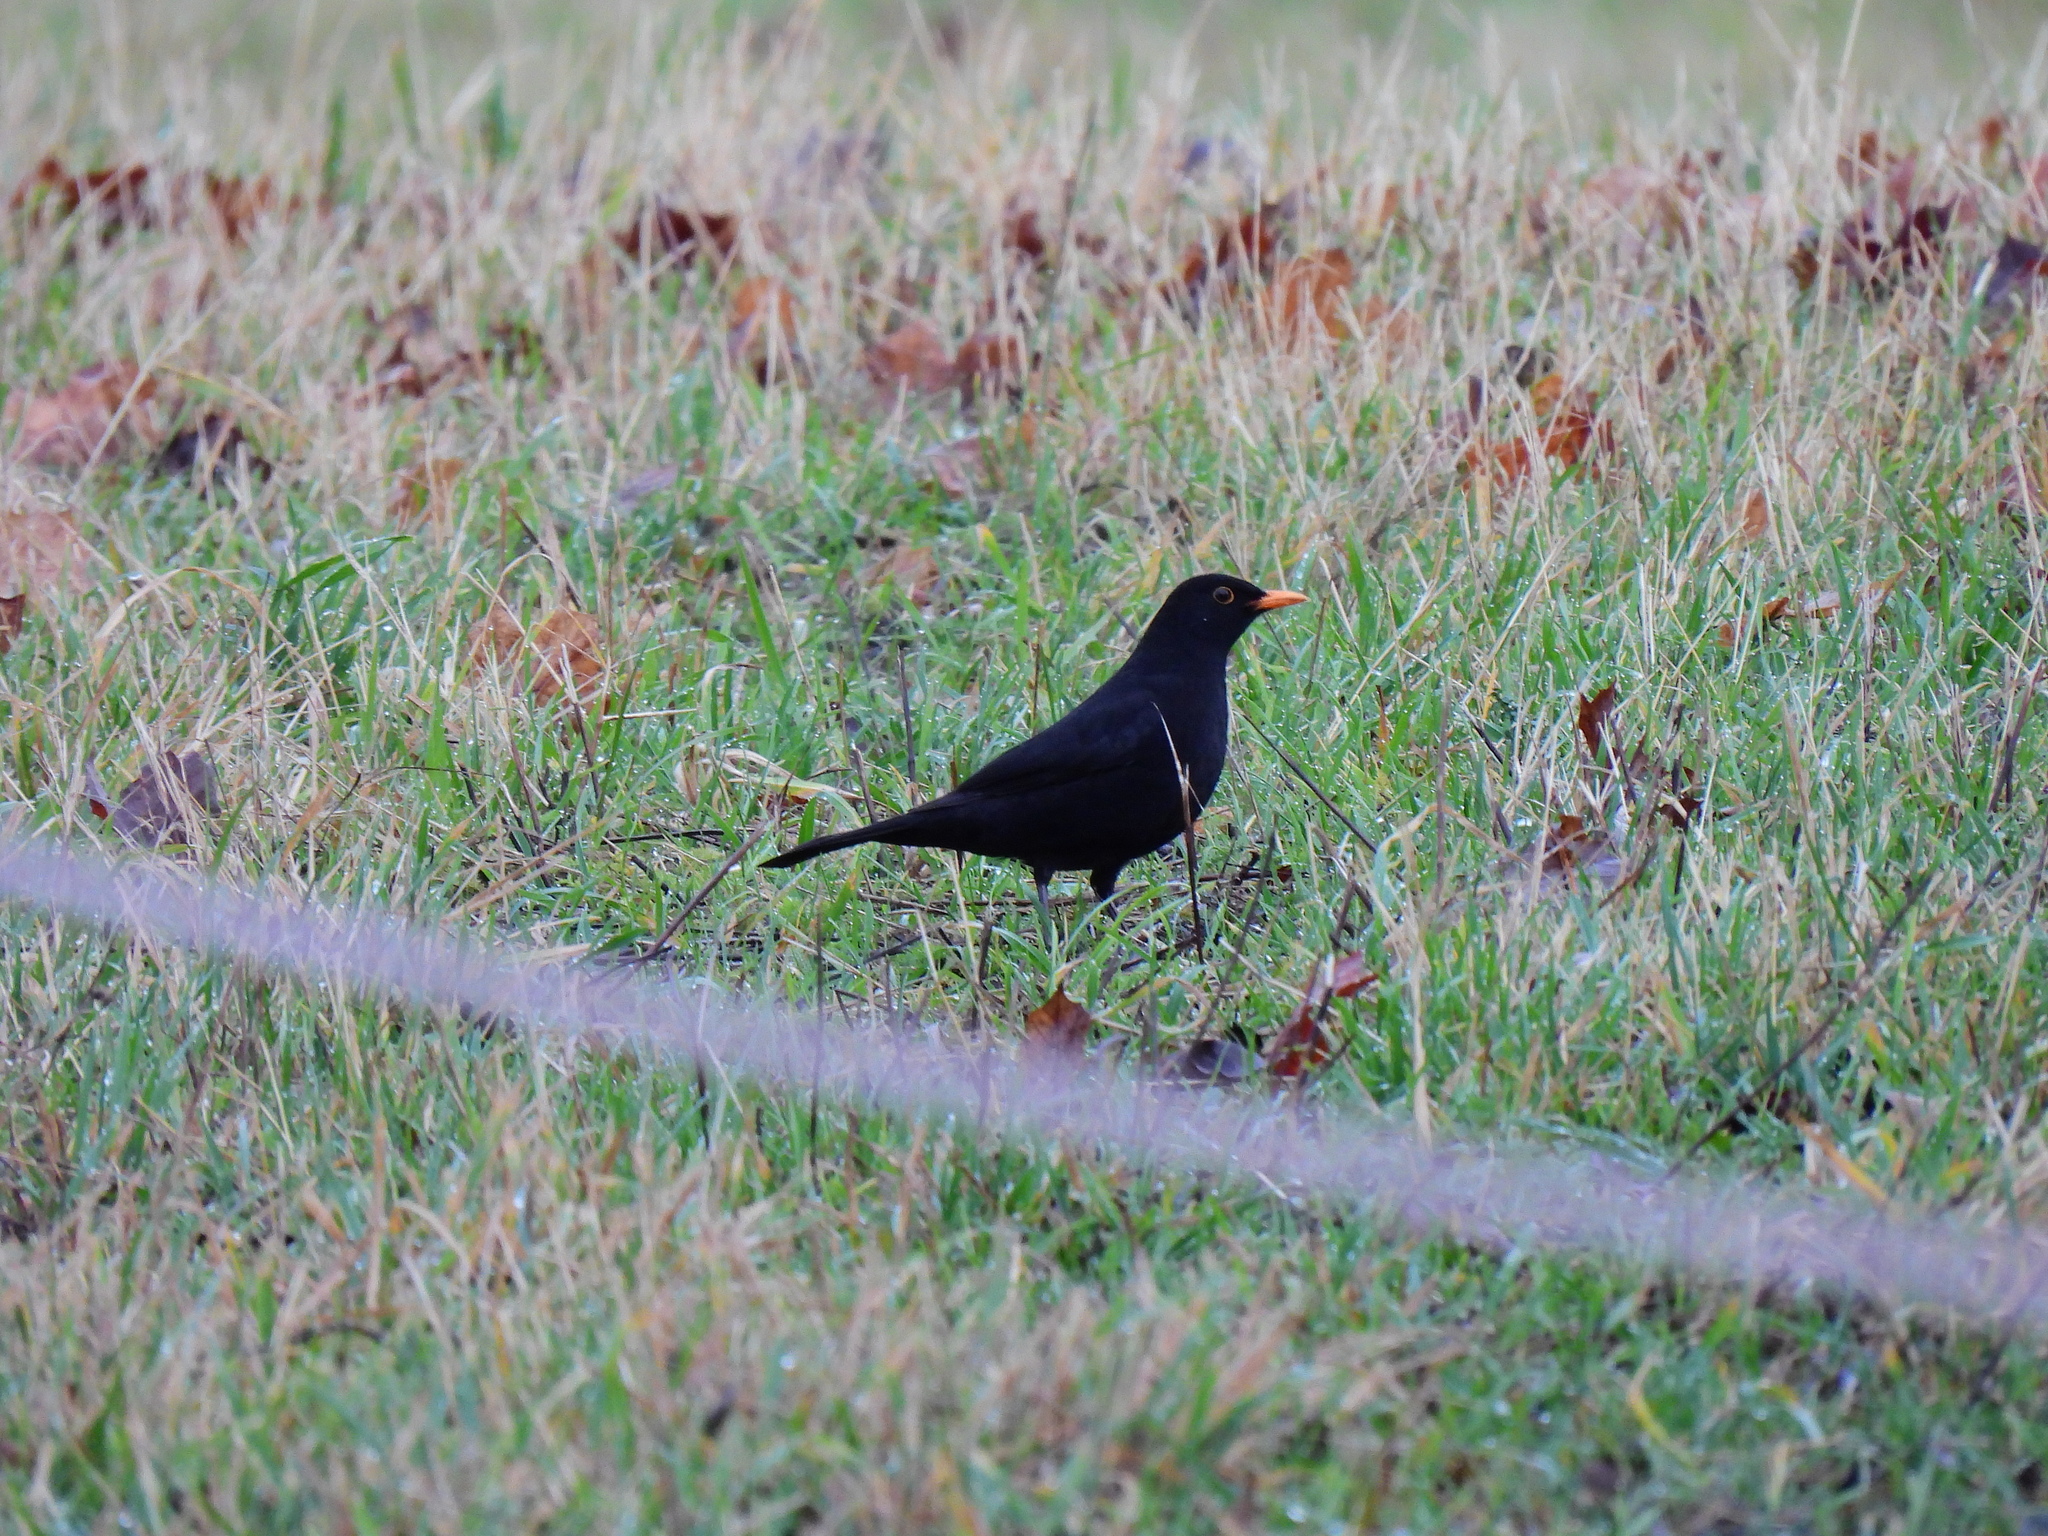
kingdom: Animalia
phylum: Chordata
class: Aves
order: Passeriformes
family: Turdidae
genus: Turdus
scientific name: Turdus merula
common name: Common blackbird
